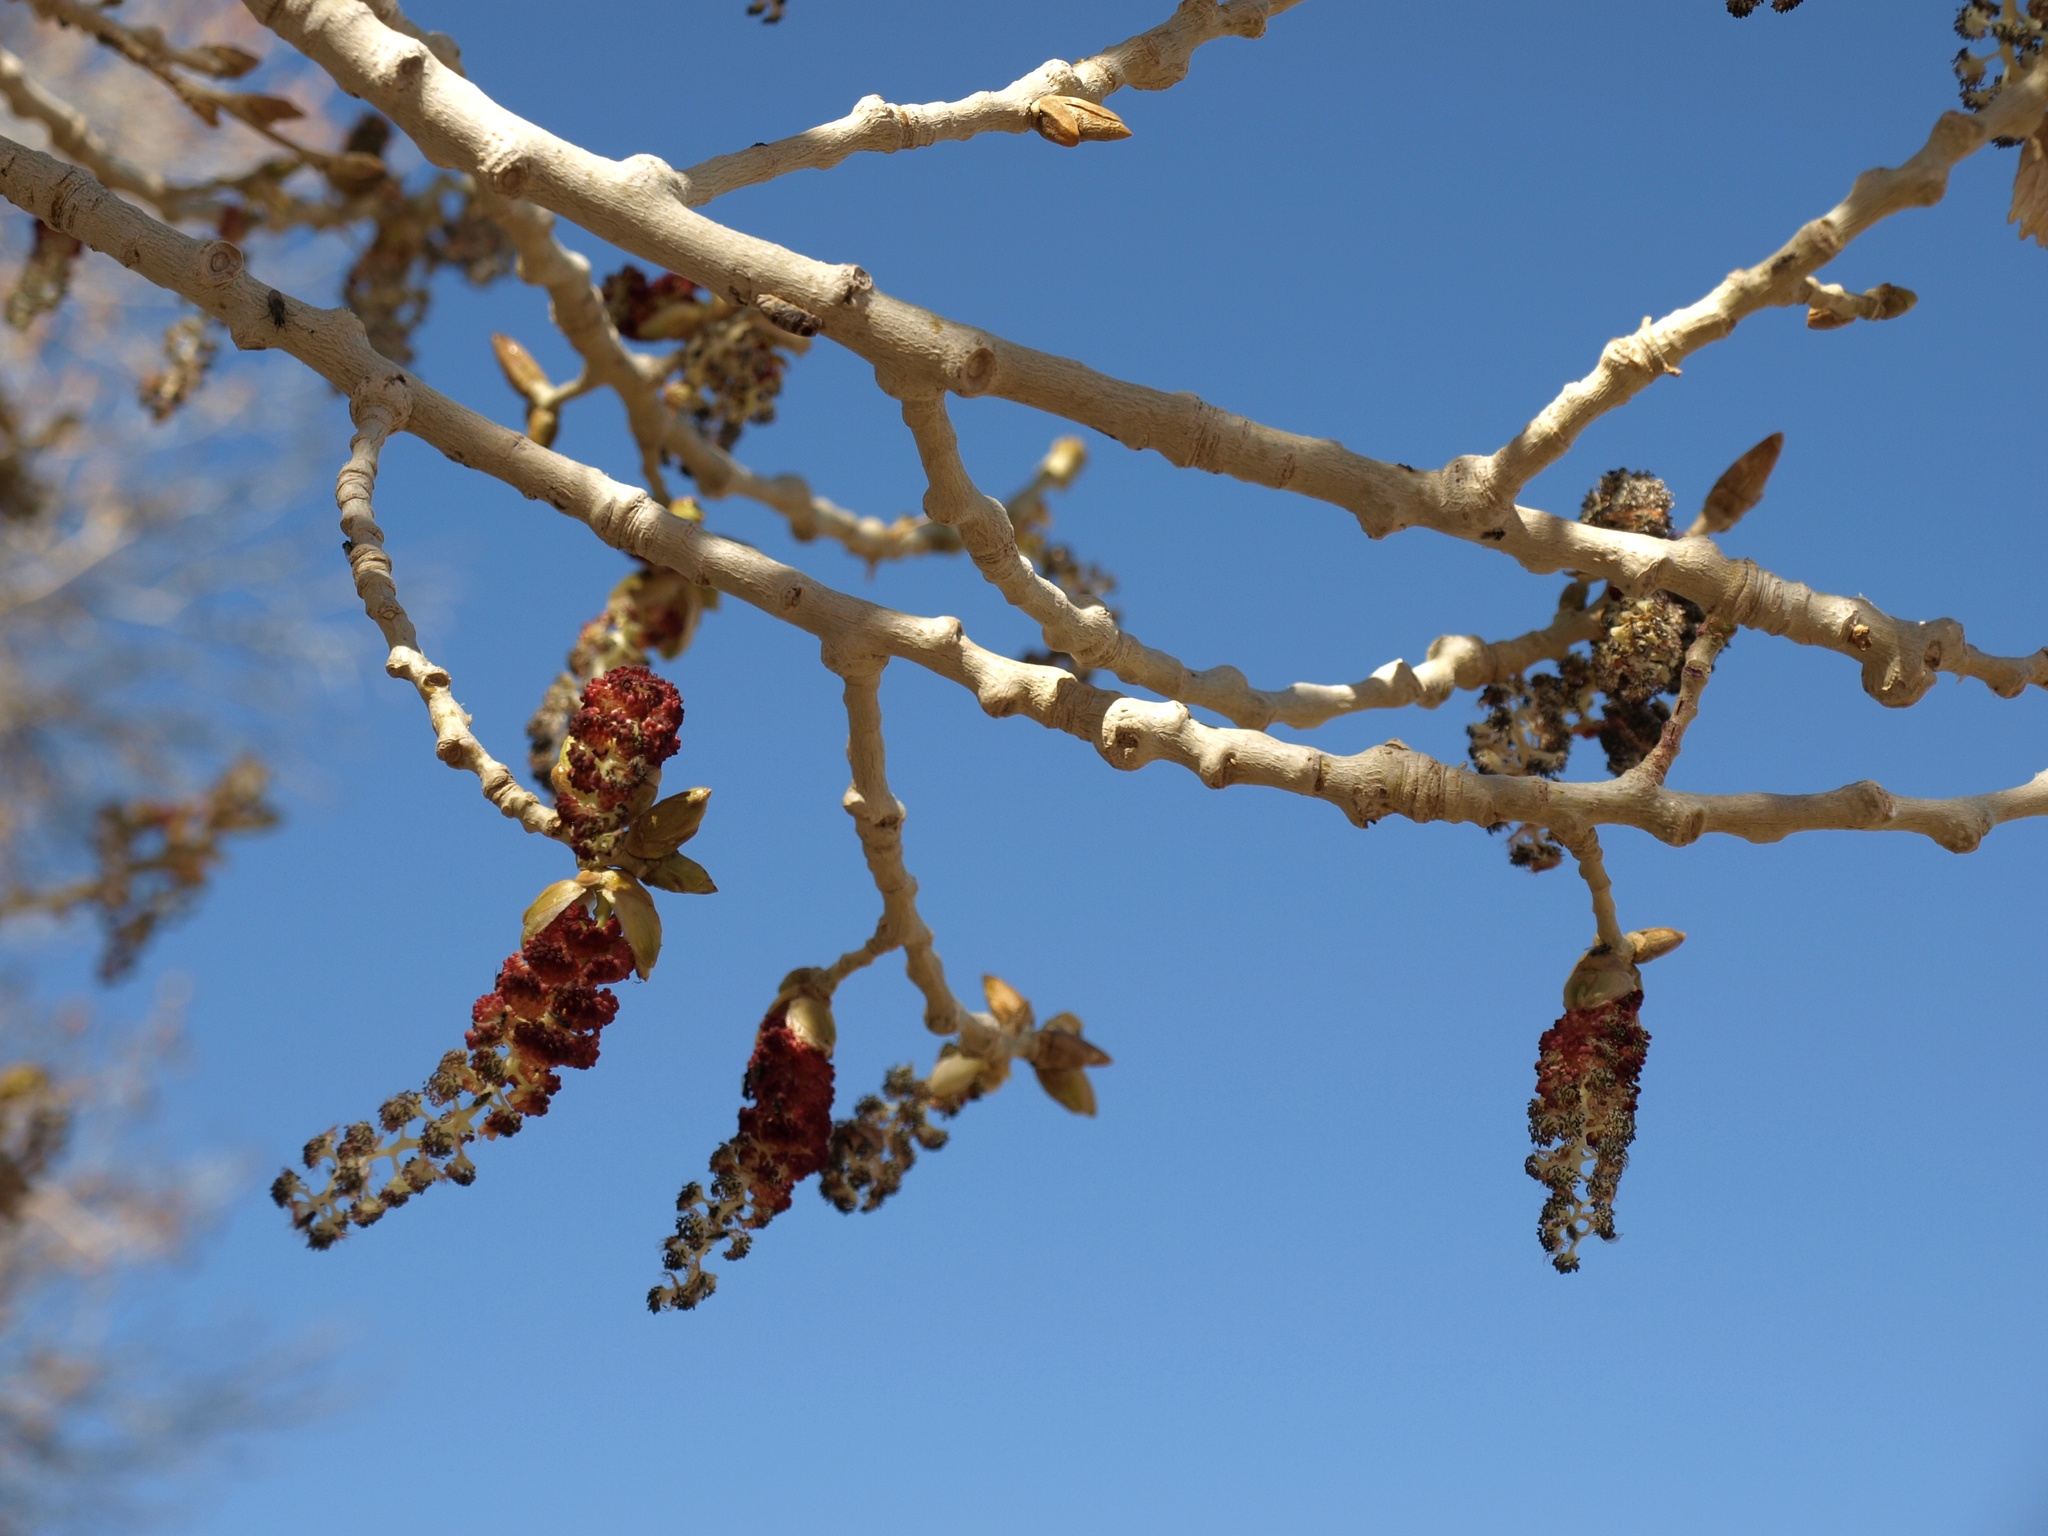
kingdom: Plantae
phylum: Tracheophyta
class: Magnoliopsida
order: Malpighiales
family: Salicaceae
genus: Populus
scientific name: Populus fremontii
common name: Fremont's cottonwood
